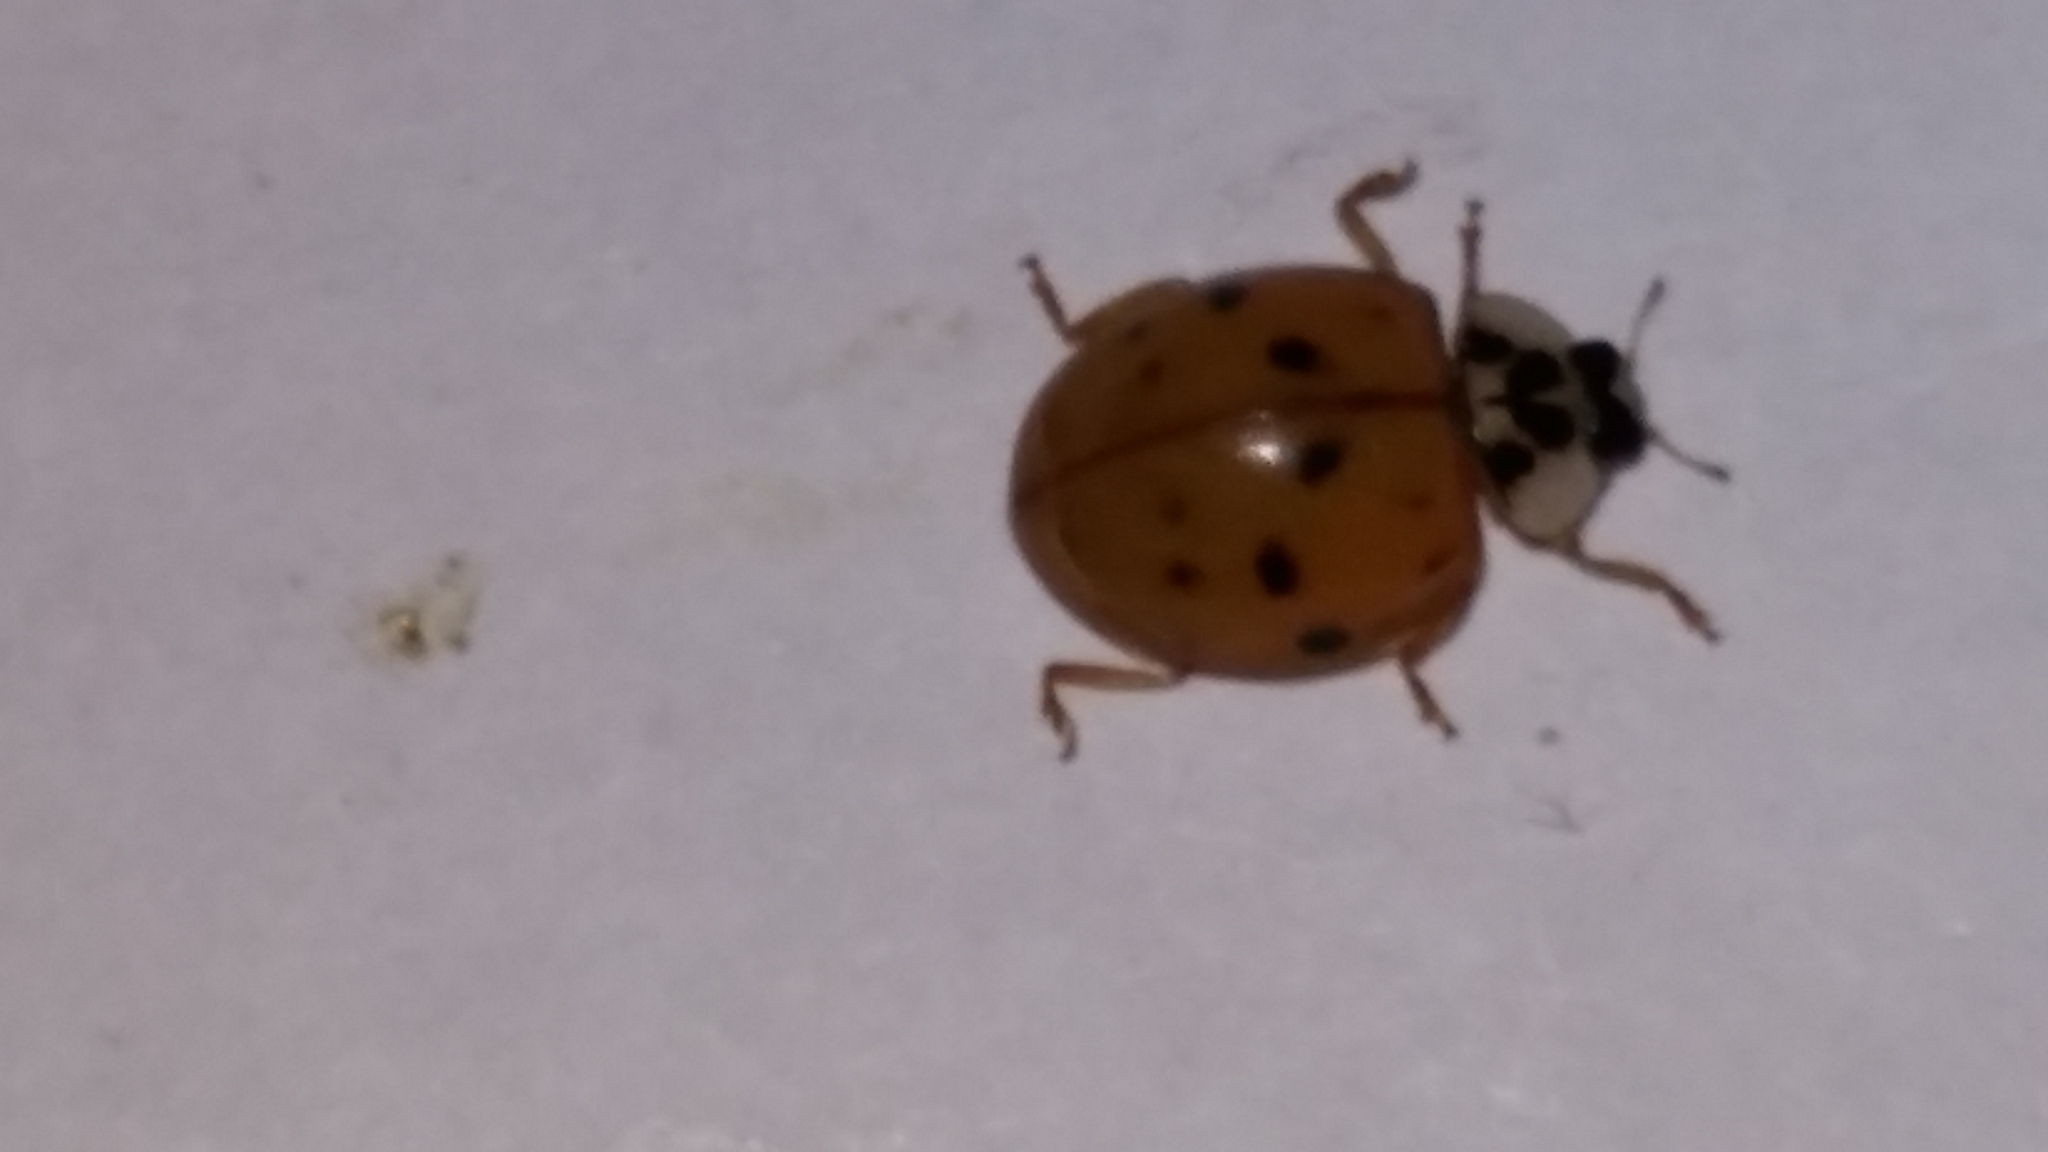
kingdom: Animalia
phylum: Arthropoda
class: Insecta
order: Coleoptera
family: Coccinellidae
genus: Harmonia
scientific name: Harmonia axyridis
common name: Harlequin ladybird
